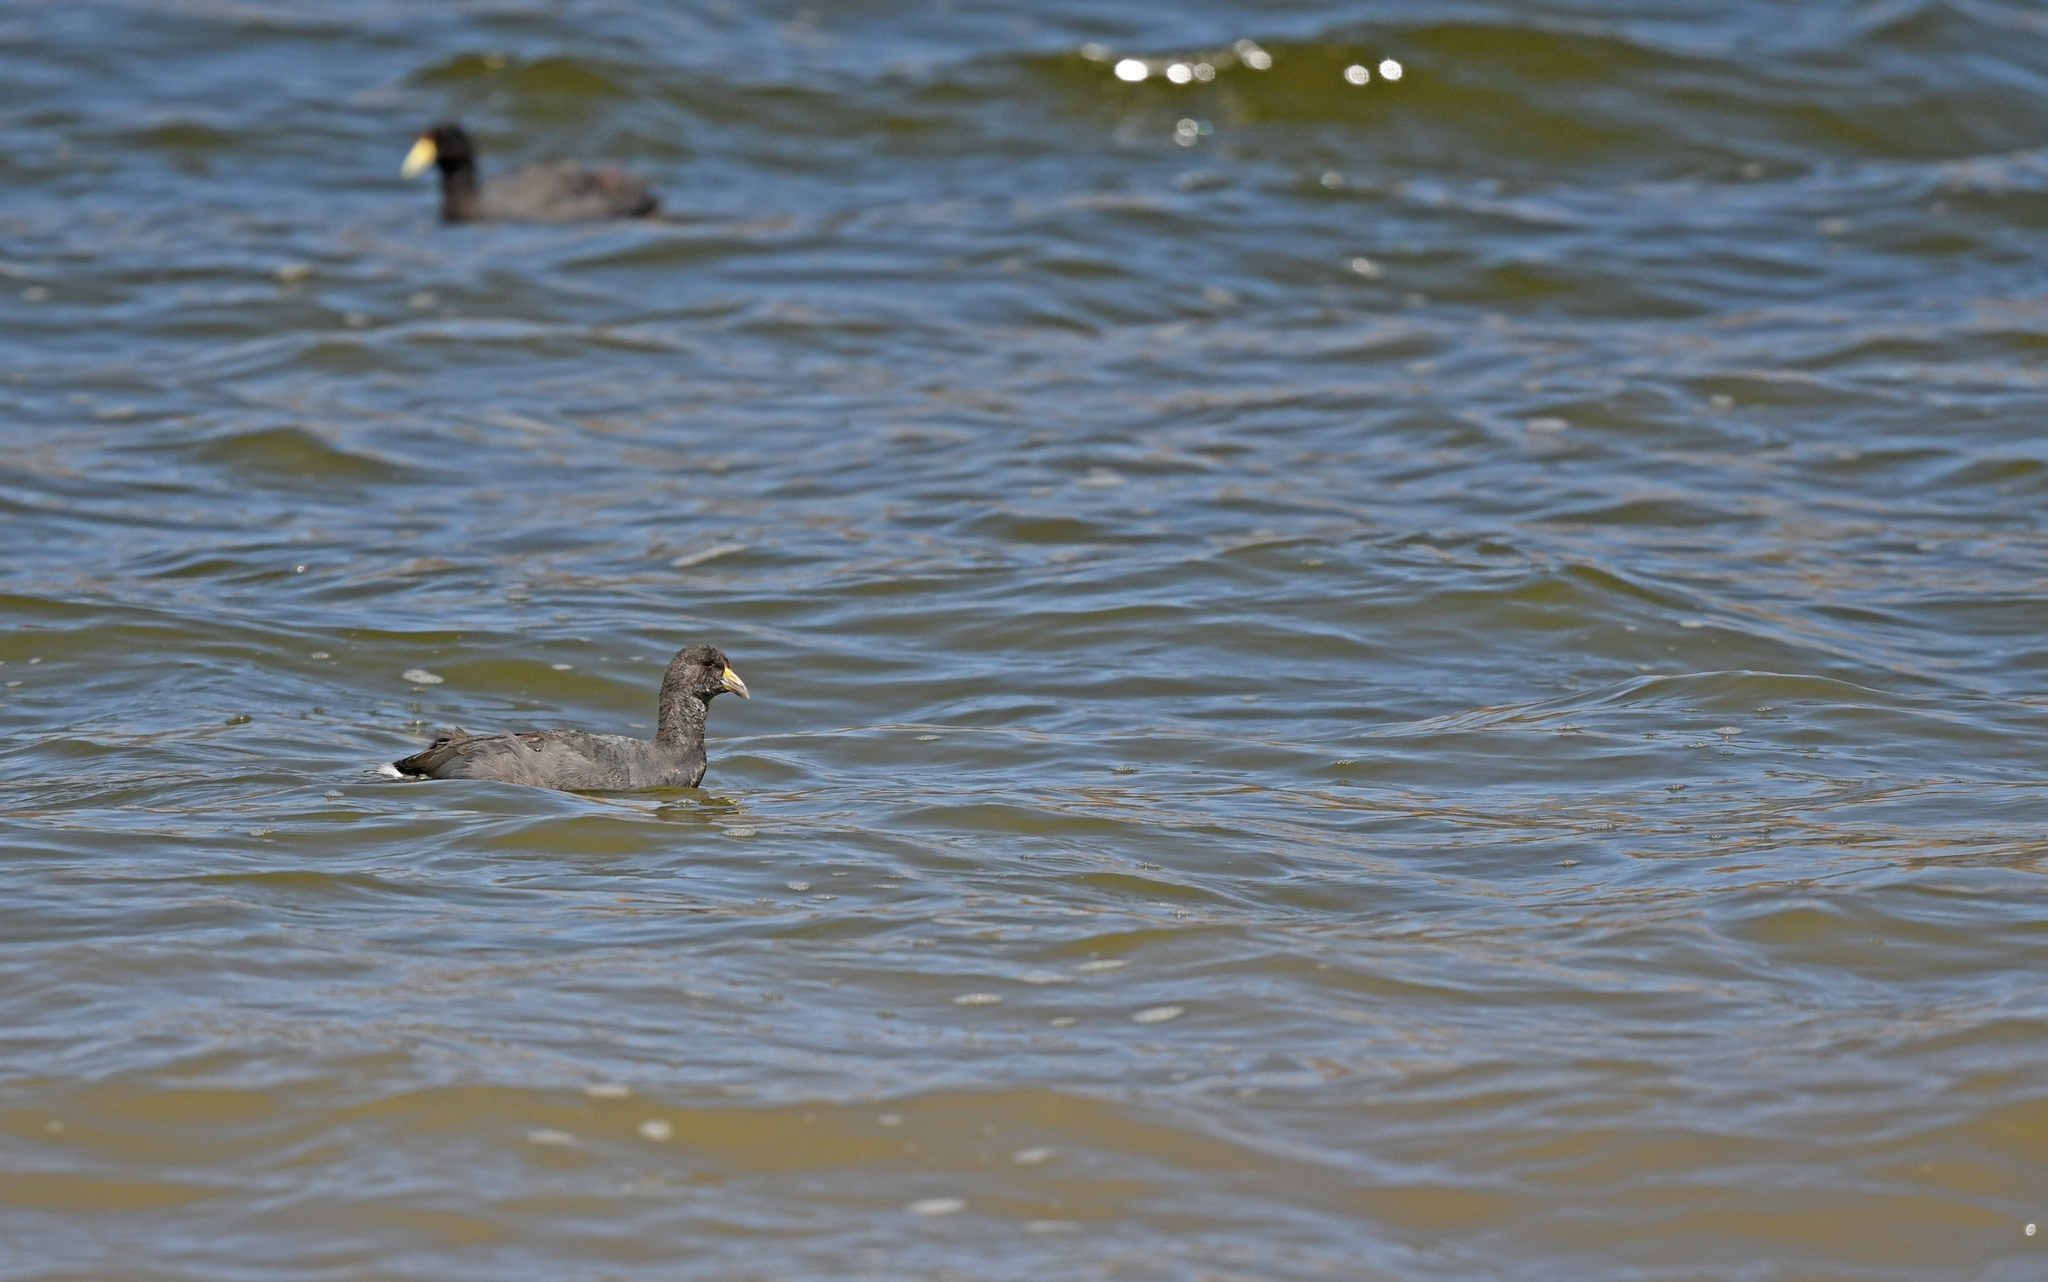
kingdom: Animalia
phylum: Chordata
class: Aves
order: Gruiformes
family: Rallidae
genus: Fulica
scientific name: Fulica ardesiaca
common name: Andean coot
